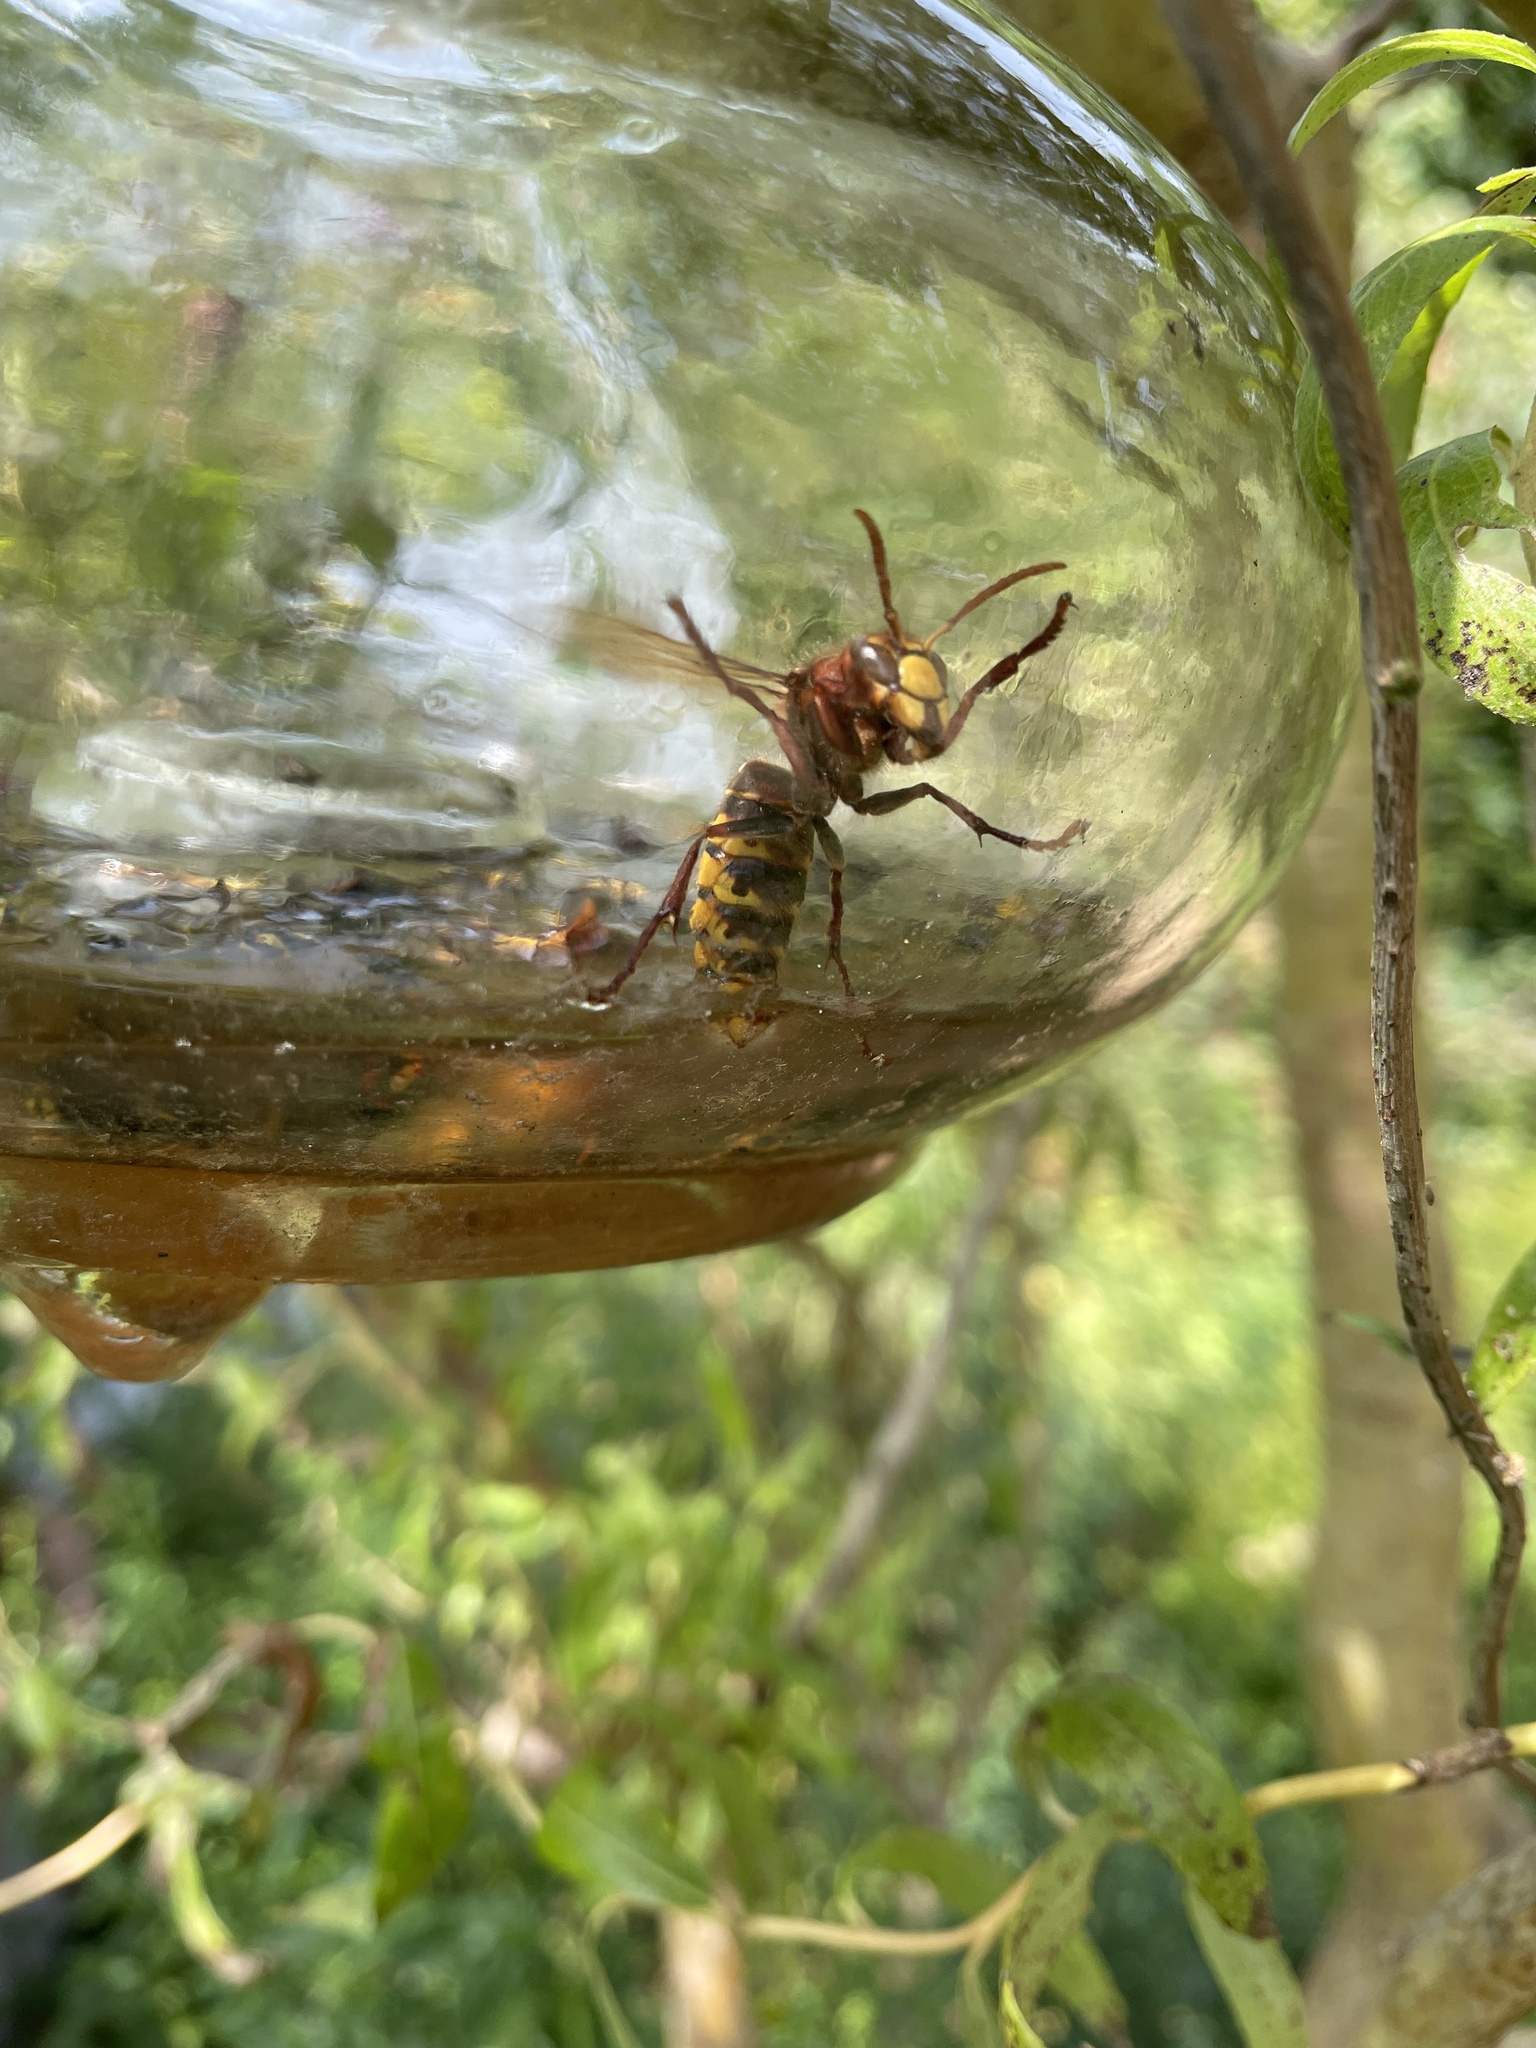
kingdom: Animalia
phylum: Arthropoda
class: Insecta
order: Hymenoptera
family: Vespidae
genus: Vespa
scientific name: Vespa crabro
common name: Hornet
